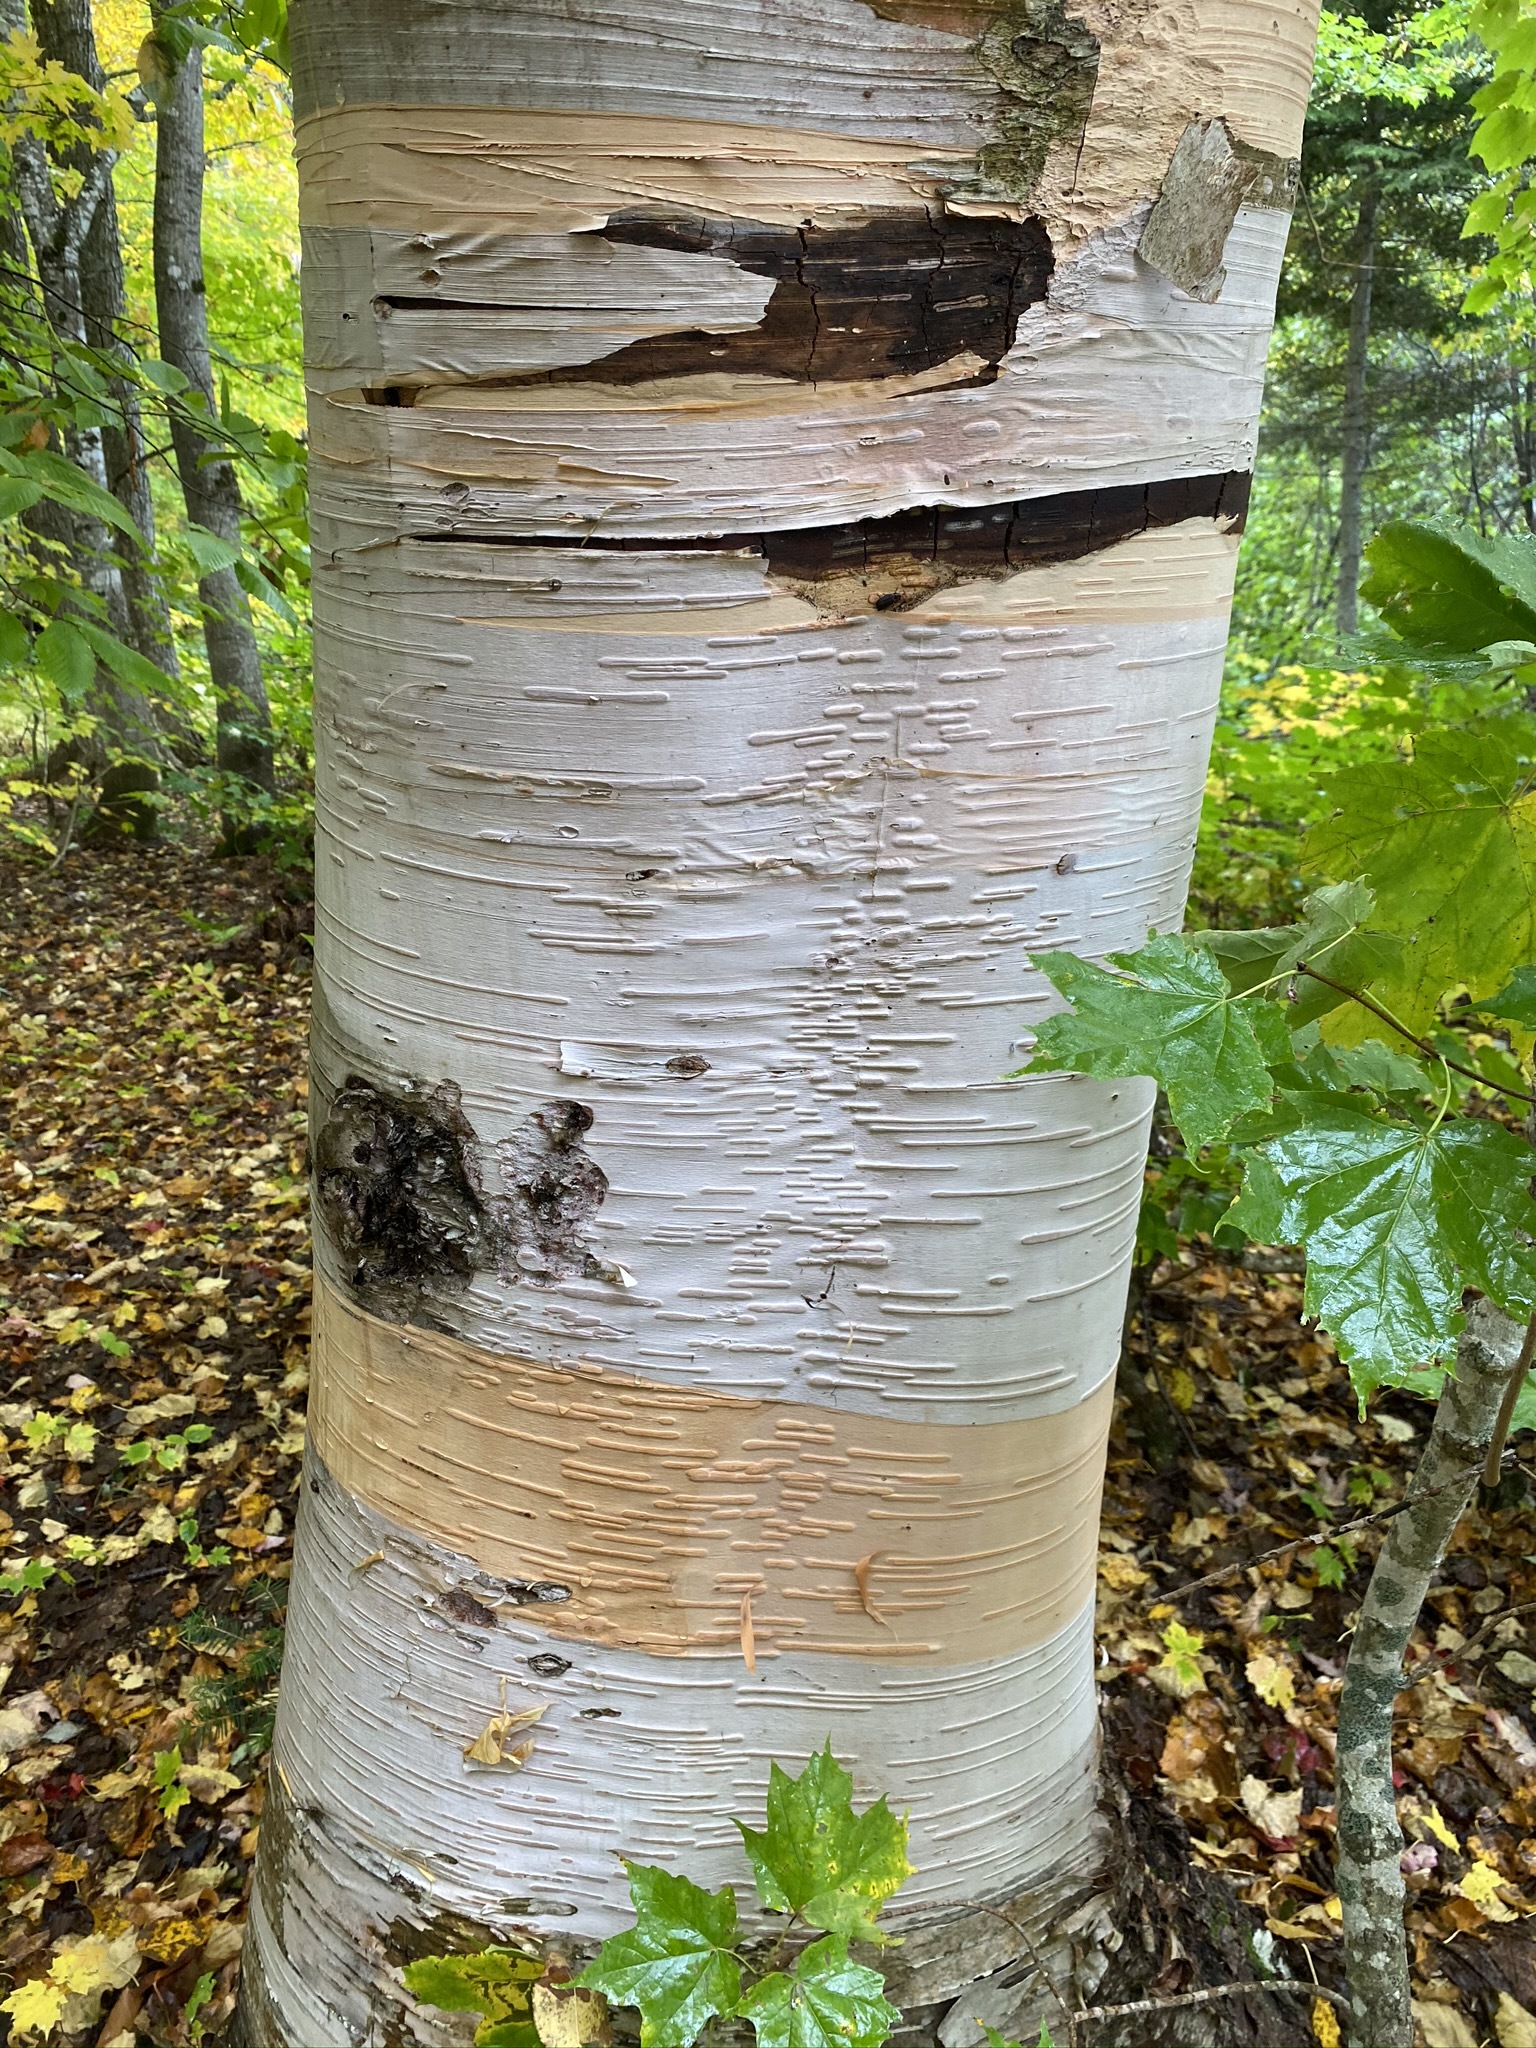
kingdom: Plantae
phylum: Tracheophyta
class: Magnoliopsida
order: Fagales
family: Betulaceae
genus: Betula
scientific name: Betula papyrifera
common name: Paper birch
